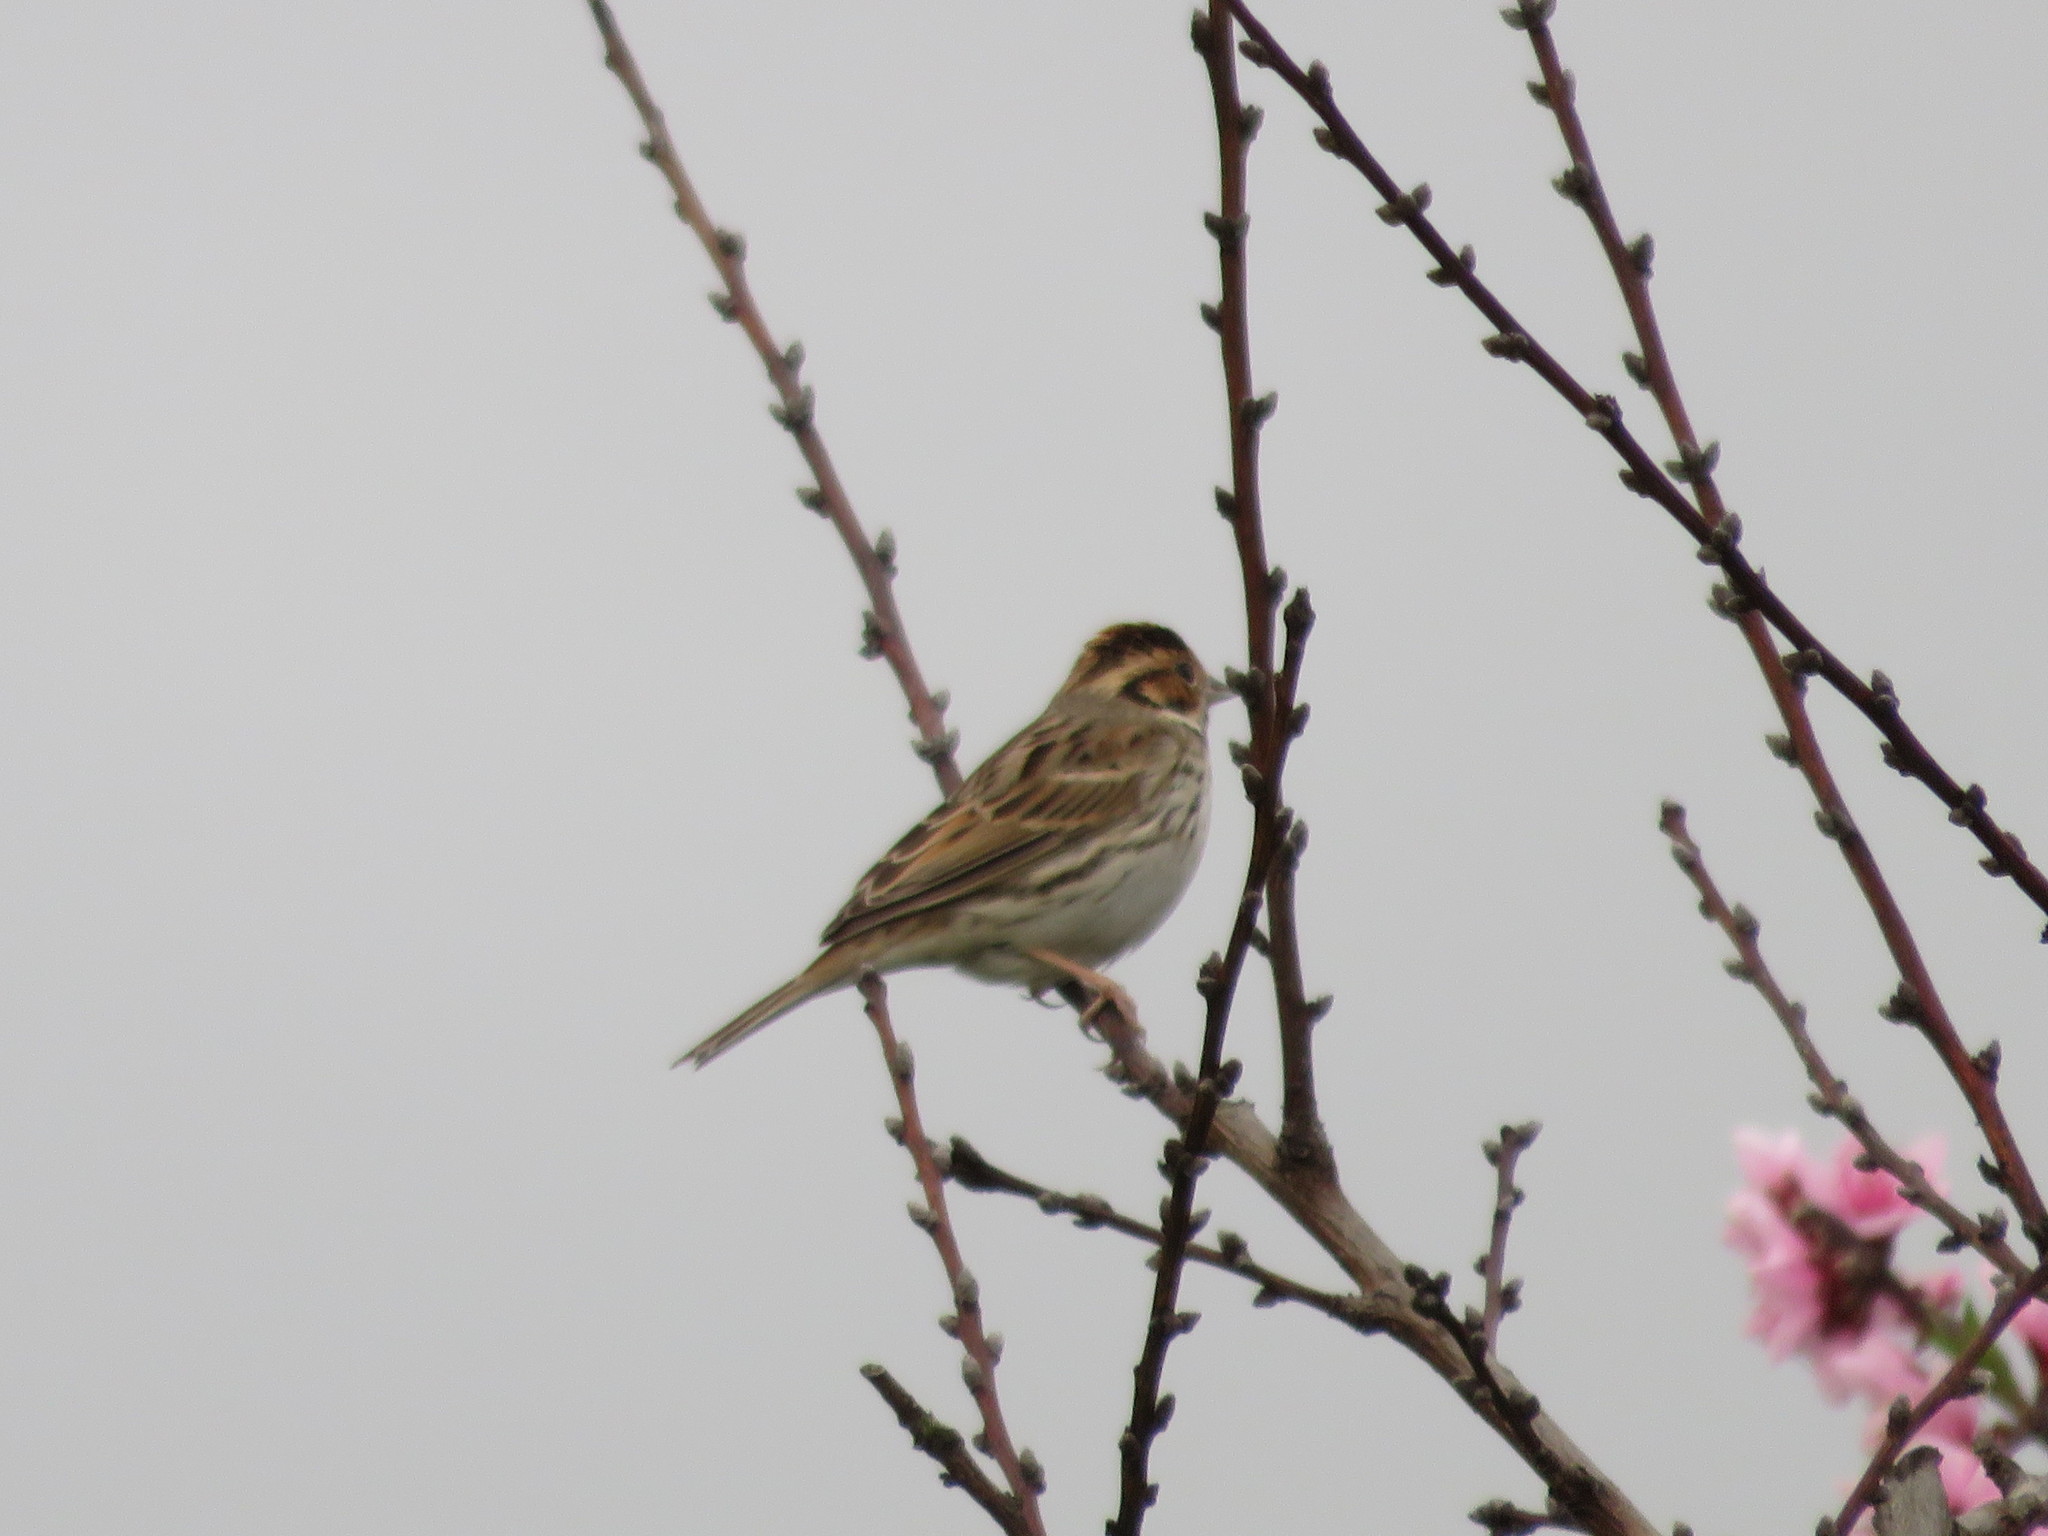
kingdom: Animalia
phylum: Chordata
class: Aves
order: Passeriformes
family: Emberizidae
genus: Emberiza
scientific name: Emberiza pusilla
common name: Little bunting
